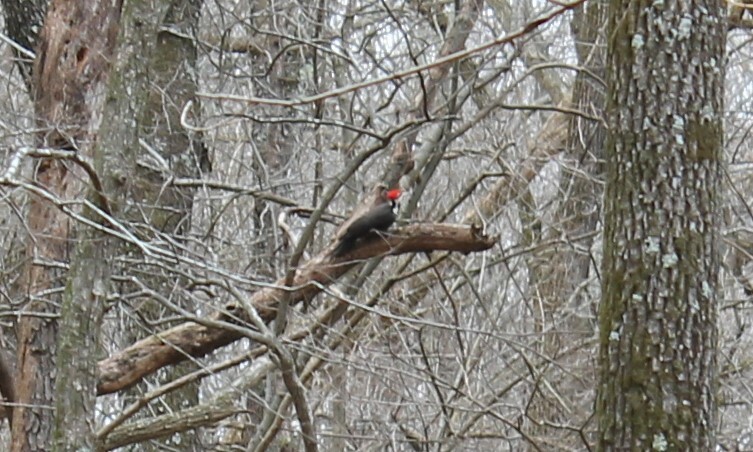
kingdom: Animalia
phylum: Chordata
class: Aves
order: Piciformes
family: Picidae
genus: Dryocopus
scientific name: Dryocopus pileatus
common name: Pileated woodpecker
